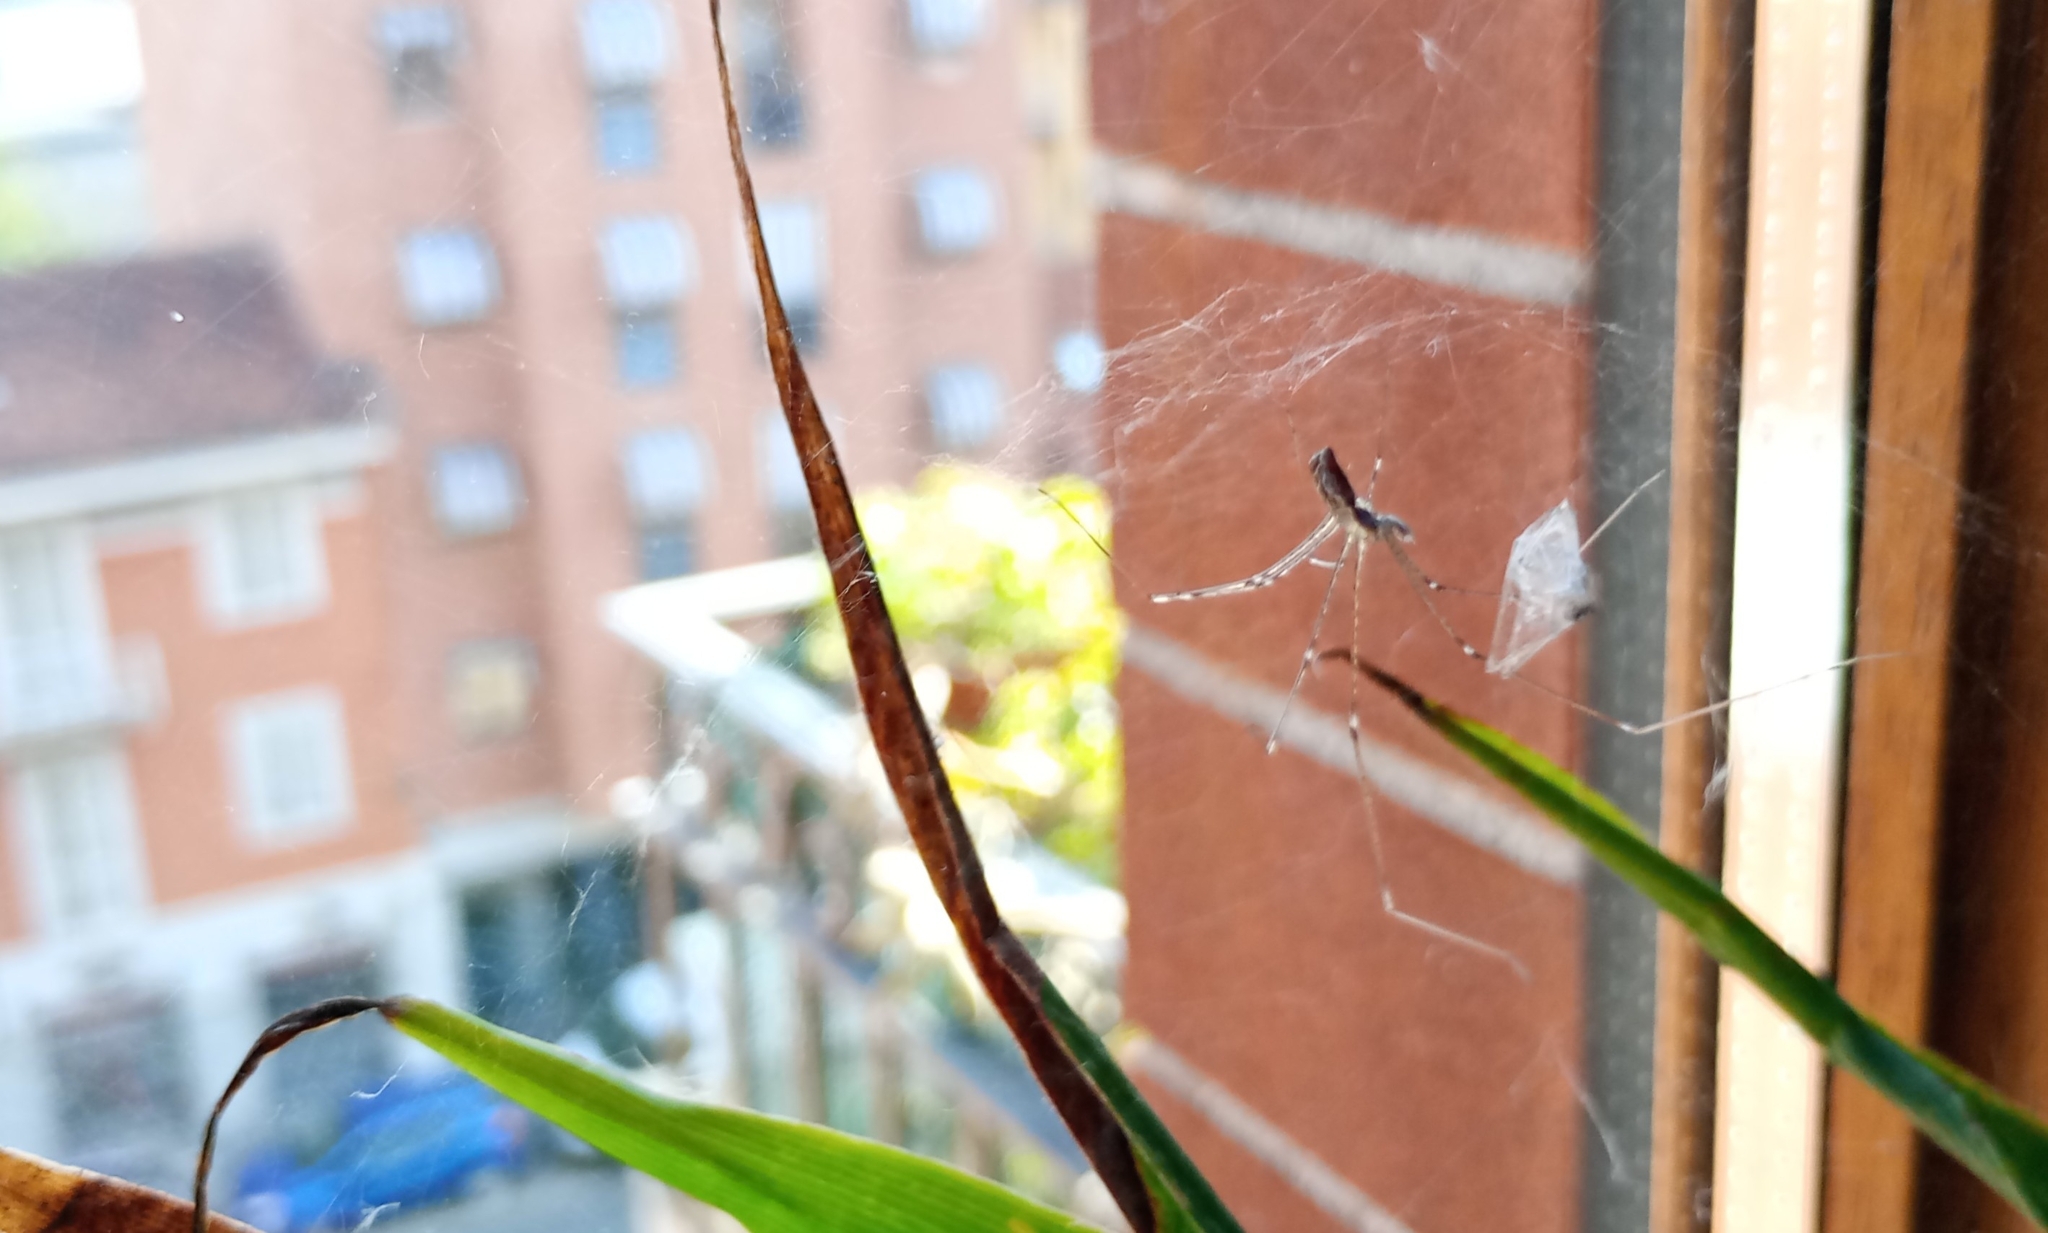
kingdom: Animalia
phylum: Arthropoda
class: Arachnida
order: Araneae
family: Pholcidae
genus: Holocnemus
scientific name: Holocnemus pluchei
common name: Marbled cellar spider
